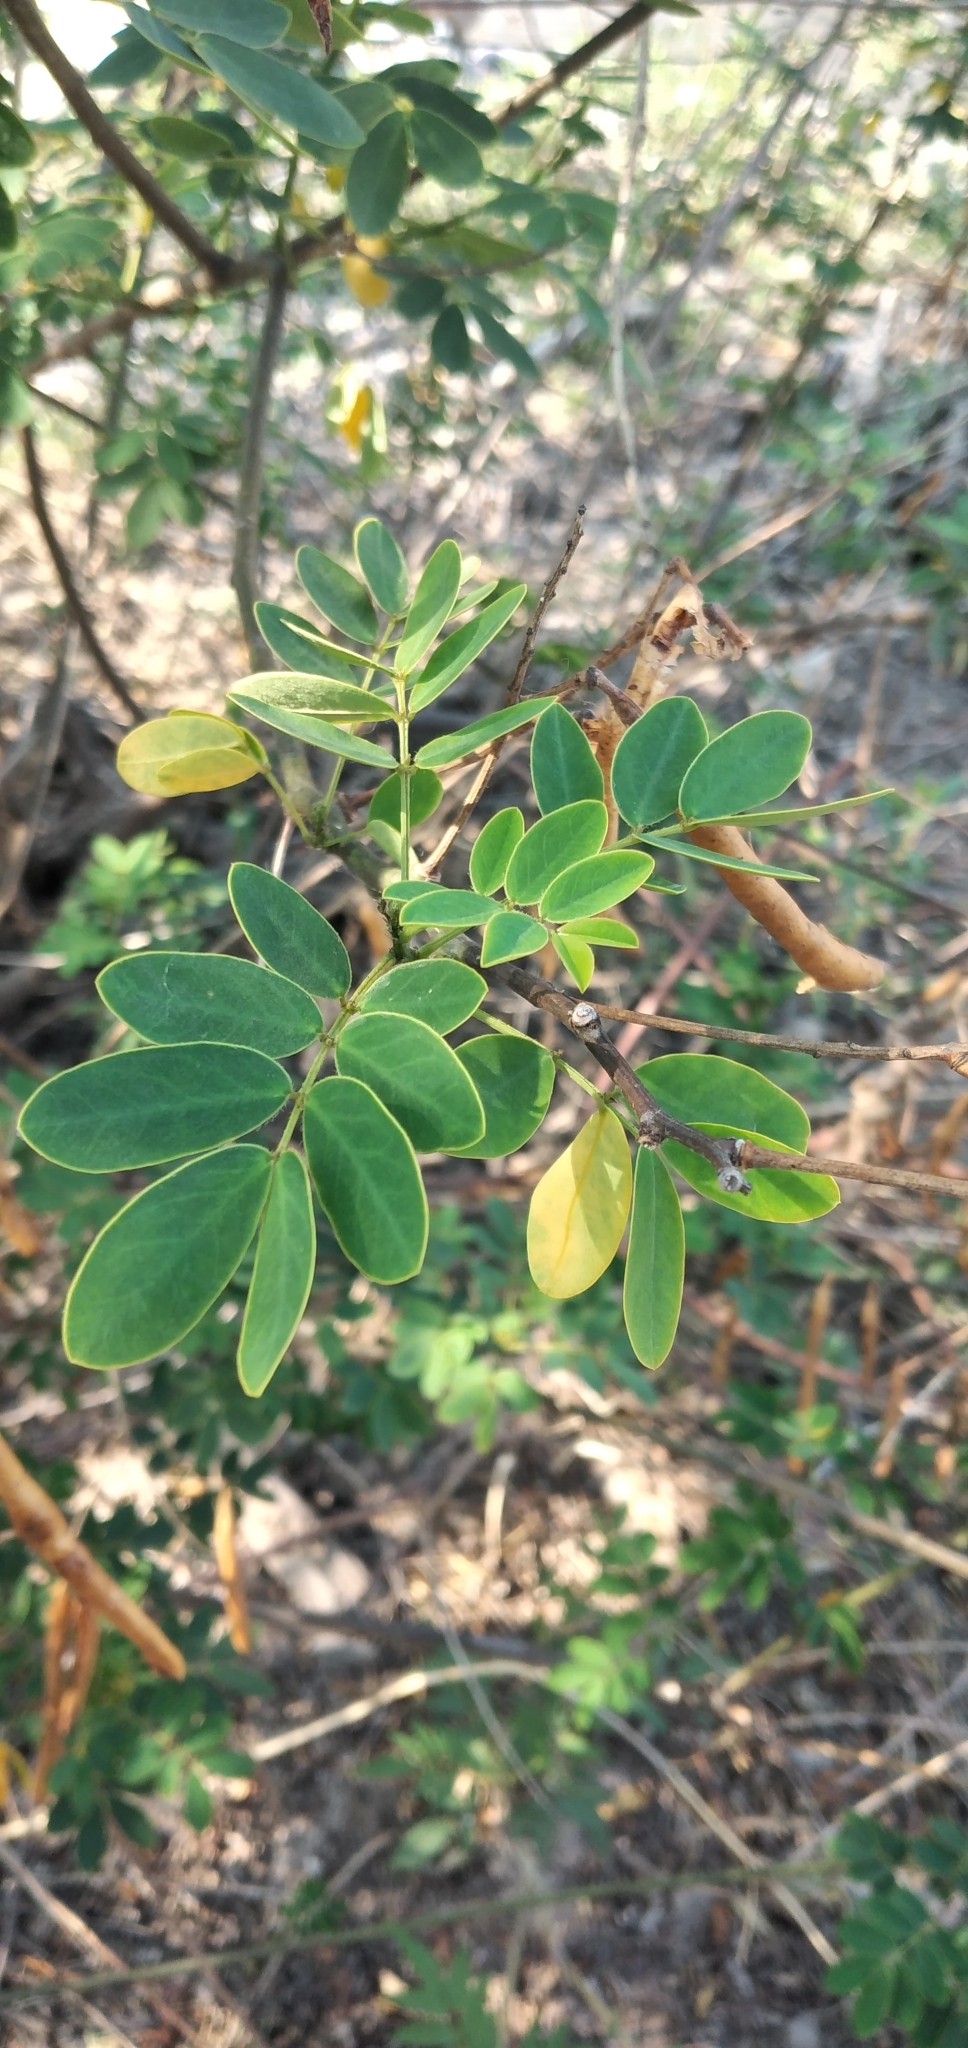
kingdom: Plantae
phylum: Tracheophyta
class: Magnoliopsida
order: Fabales
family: Fabaceae
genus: Senna
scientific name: Senna pendula
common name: Easter cassia
